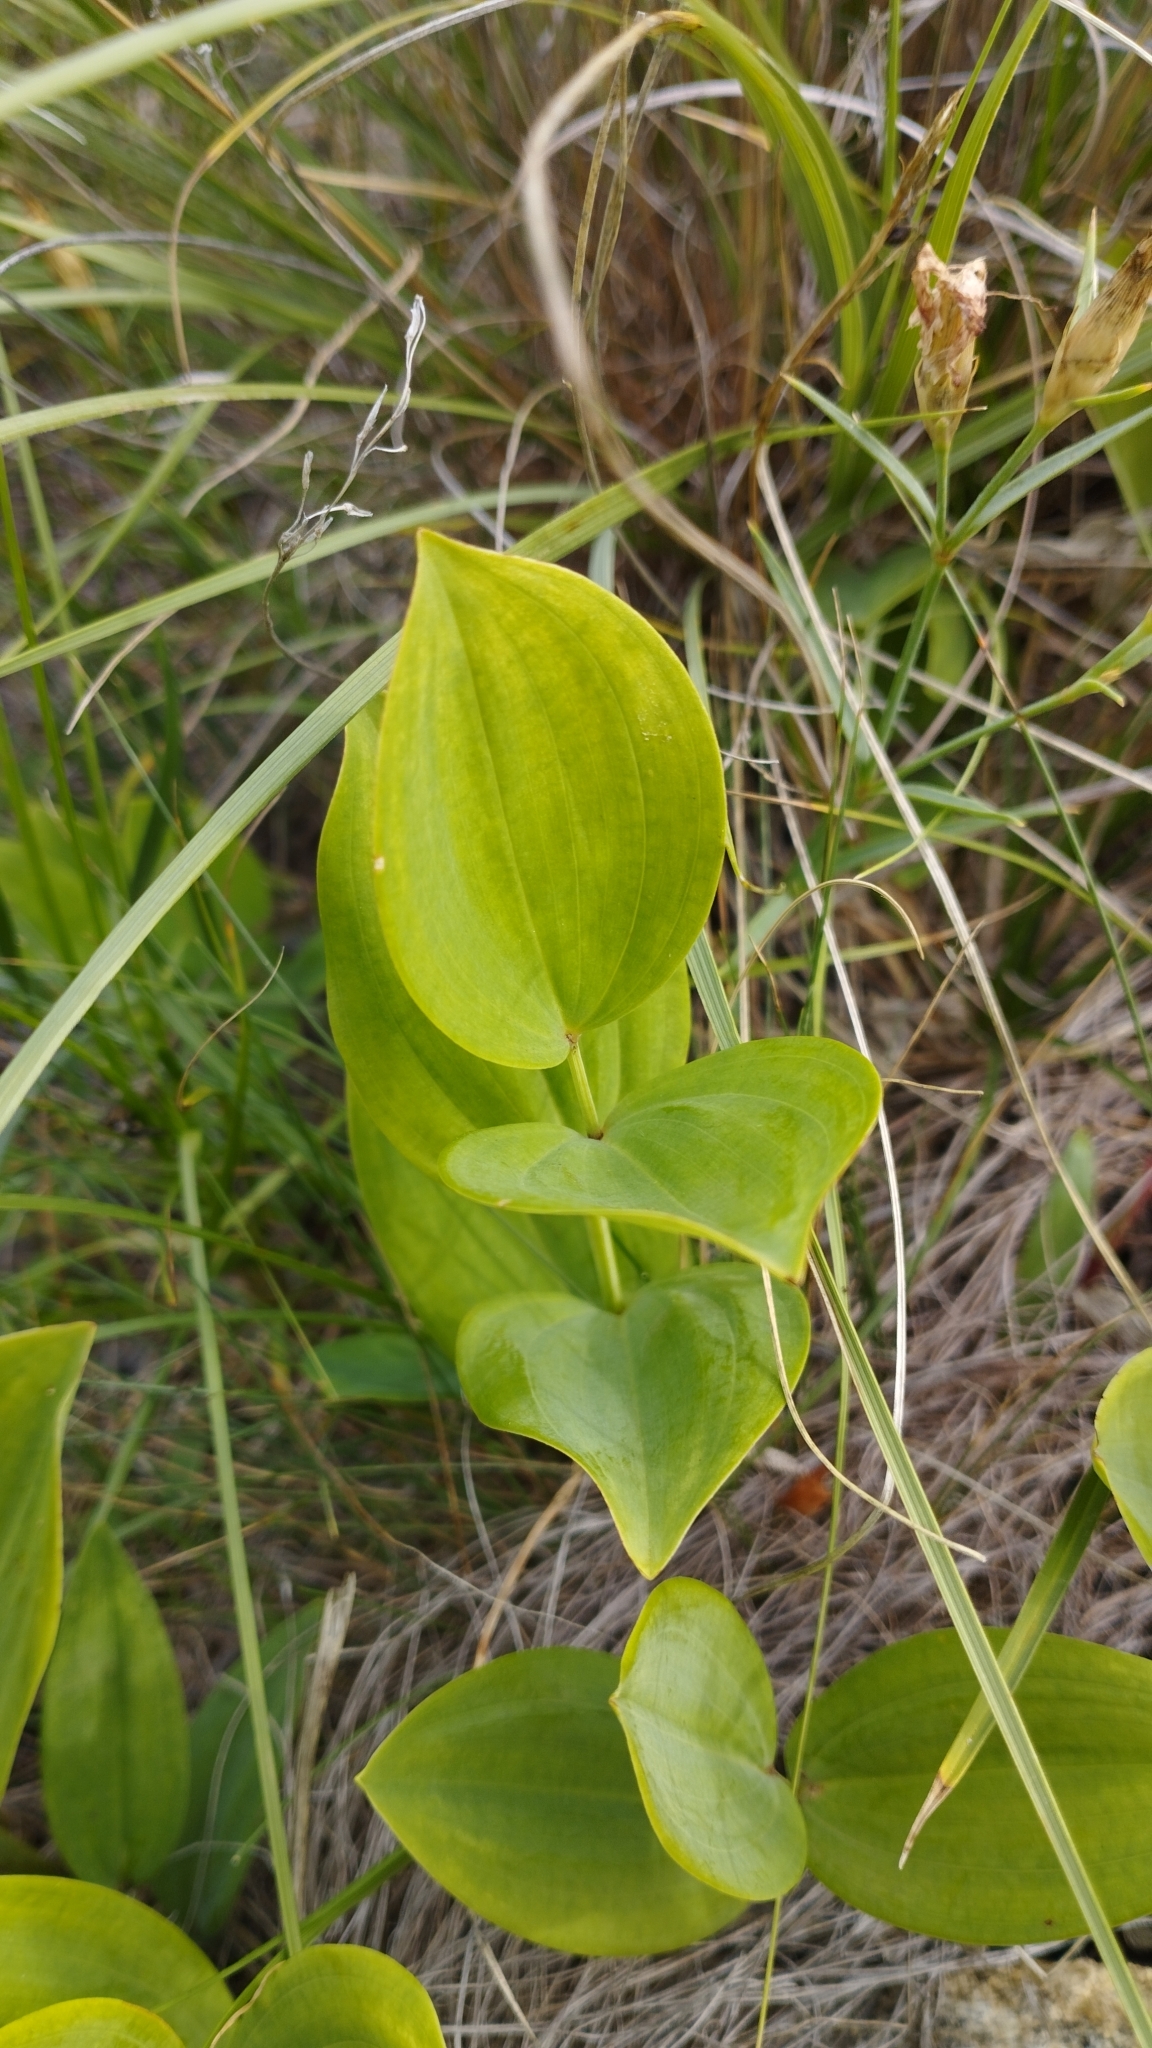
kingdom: Plantae
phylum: Tracheophyta
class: Liliopsida
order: Asparagales
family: Asparagaceae
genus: Polygonatum
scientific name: Polygonatum odoratum
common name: Angular solomon's-seal
